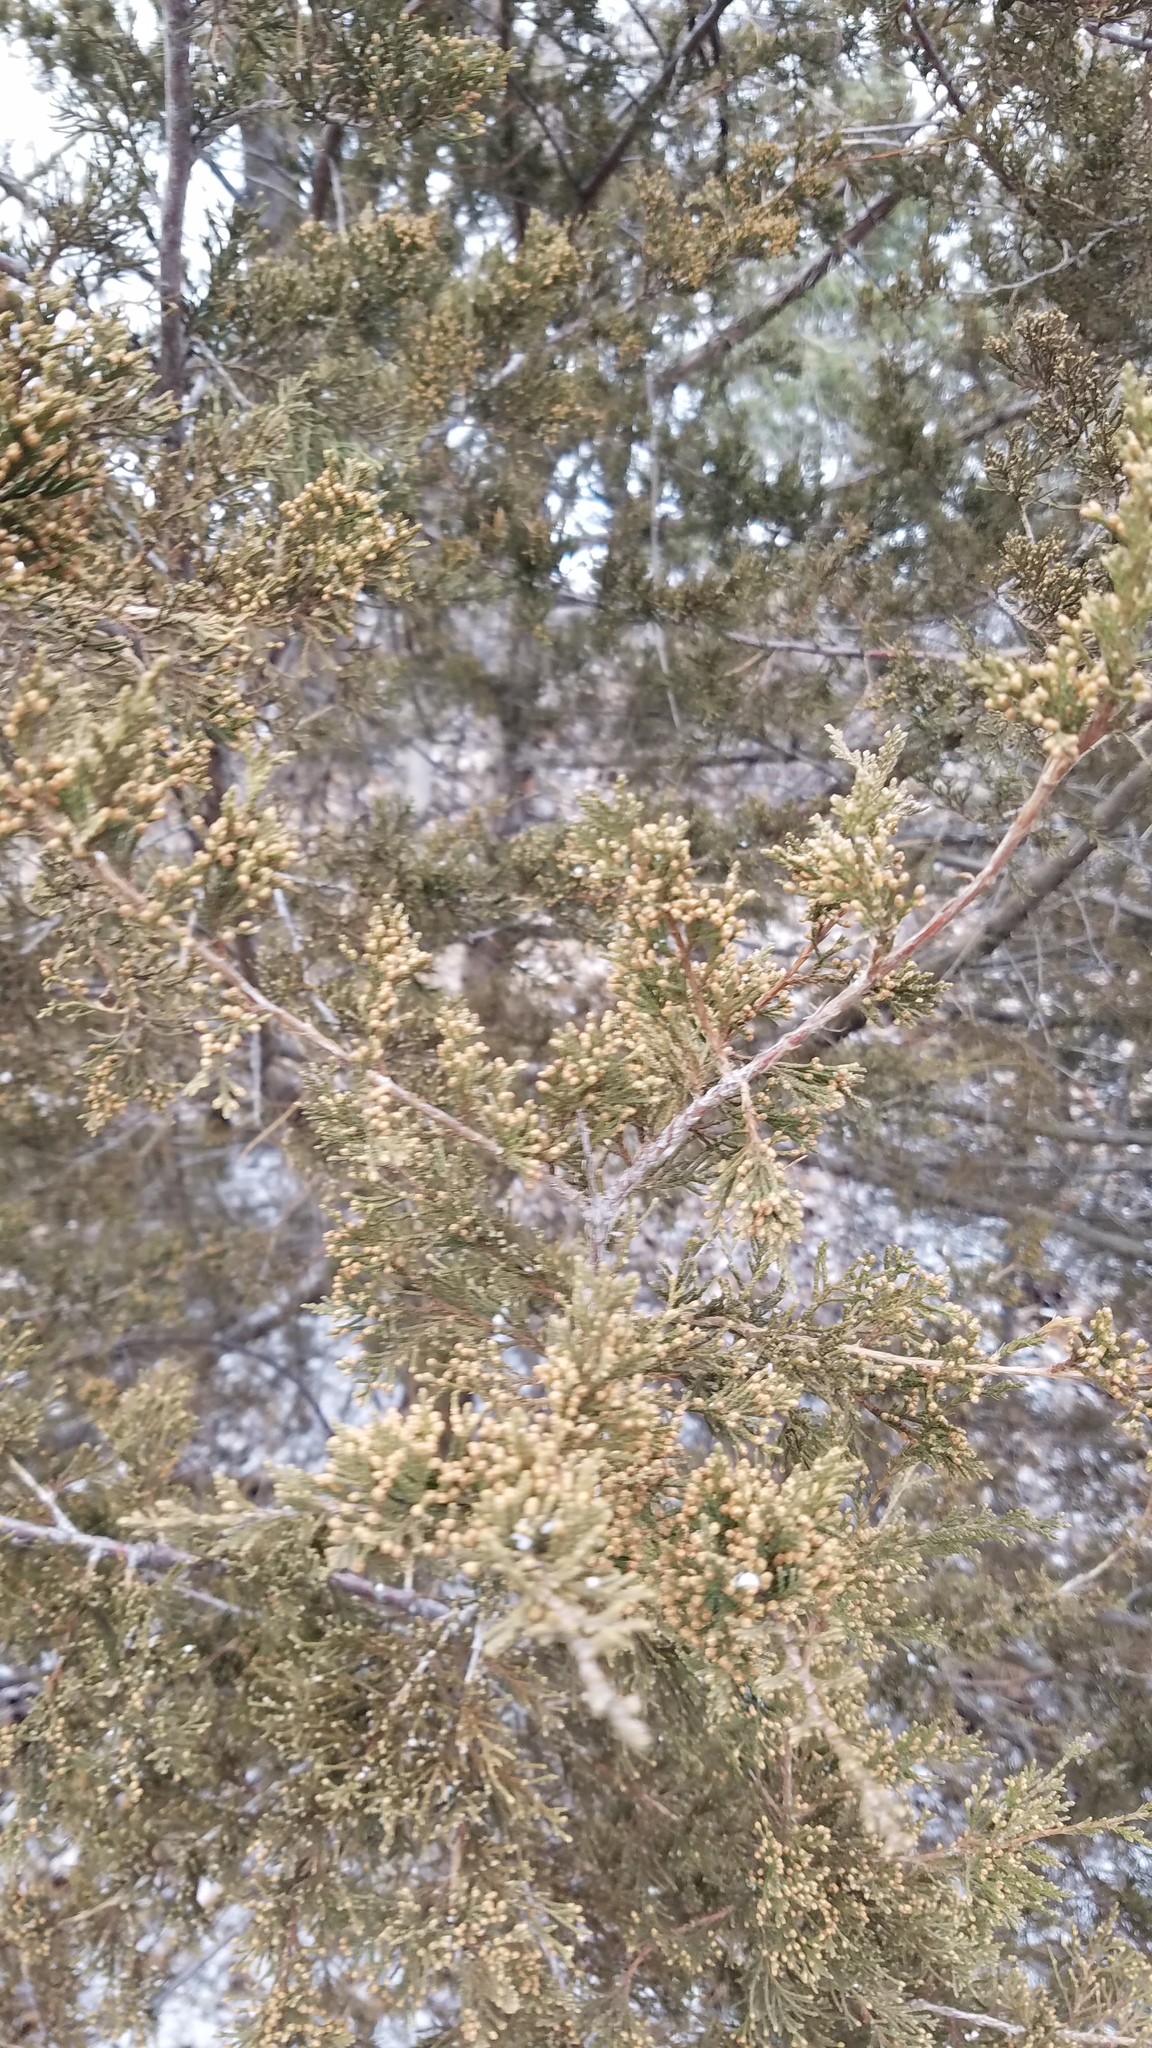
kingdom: Plantae
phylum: Tracheophyta
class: Pinopsida
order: Pinales
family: Cupressaceae
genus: Juniperus
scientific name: Juniperus virginiana
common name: Red juniper
